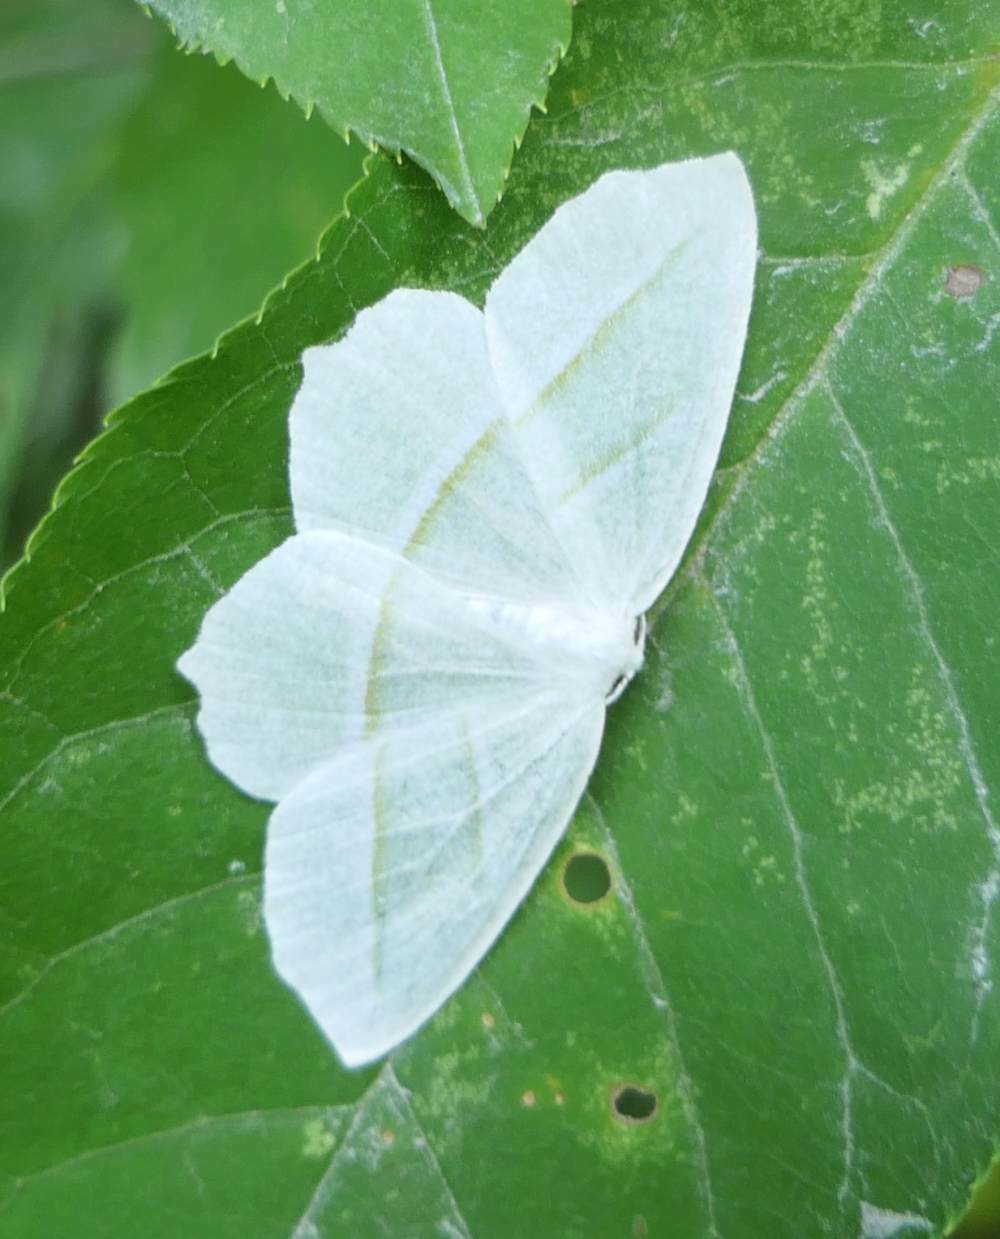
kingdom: Animalia
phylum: Arthropoda
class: Insecta
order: Lepidoptera
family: Geometridae
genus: Campaea
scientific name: Campaea perlata
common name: Fringed looper
